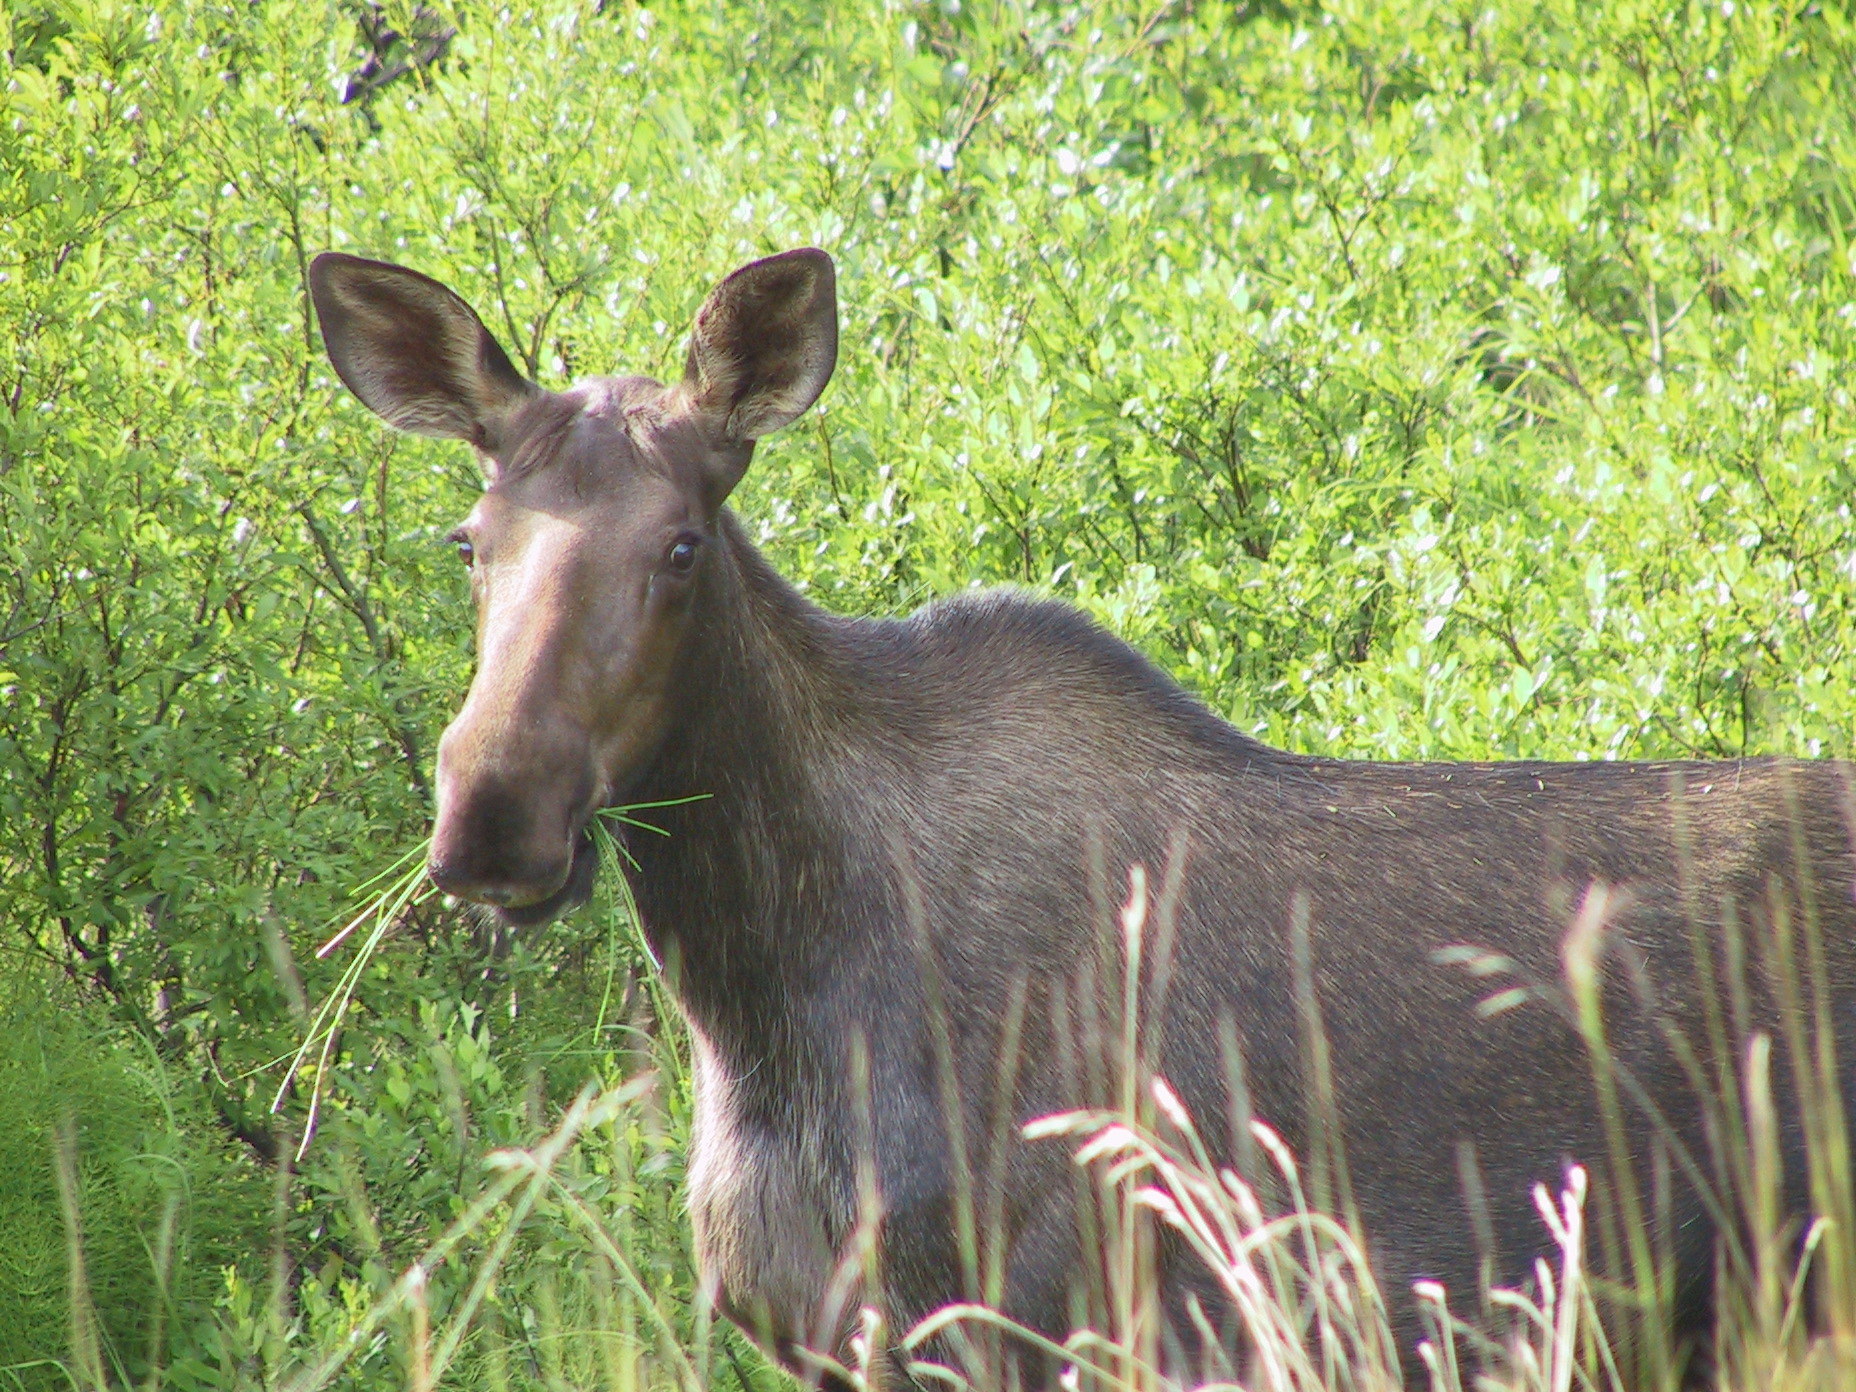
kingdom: Animalia
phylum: Chordata
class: Mammalia
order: Artiodactyla
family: Cervidae
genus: Alces
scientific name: Alces alces
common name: Moose
